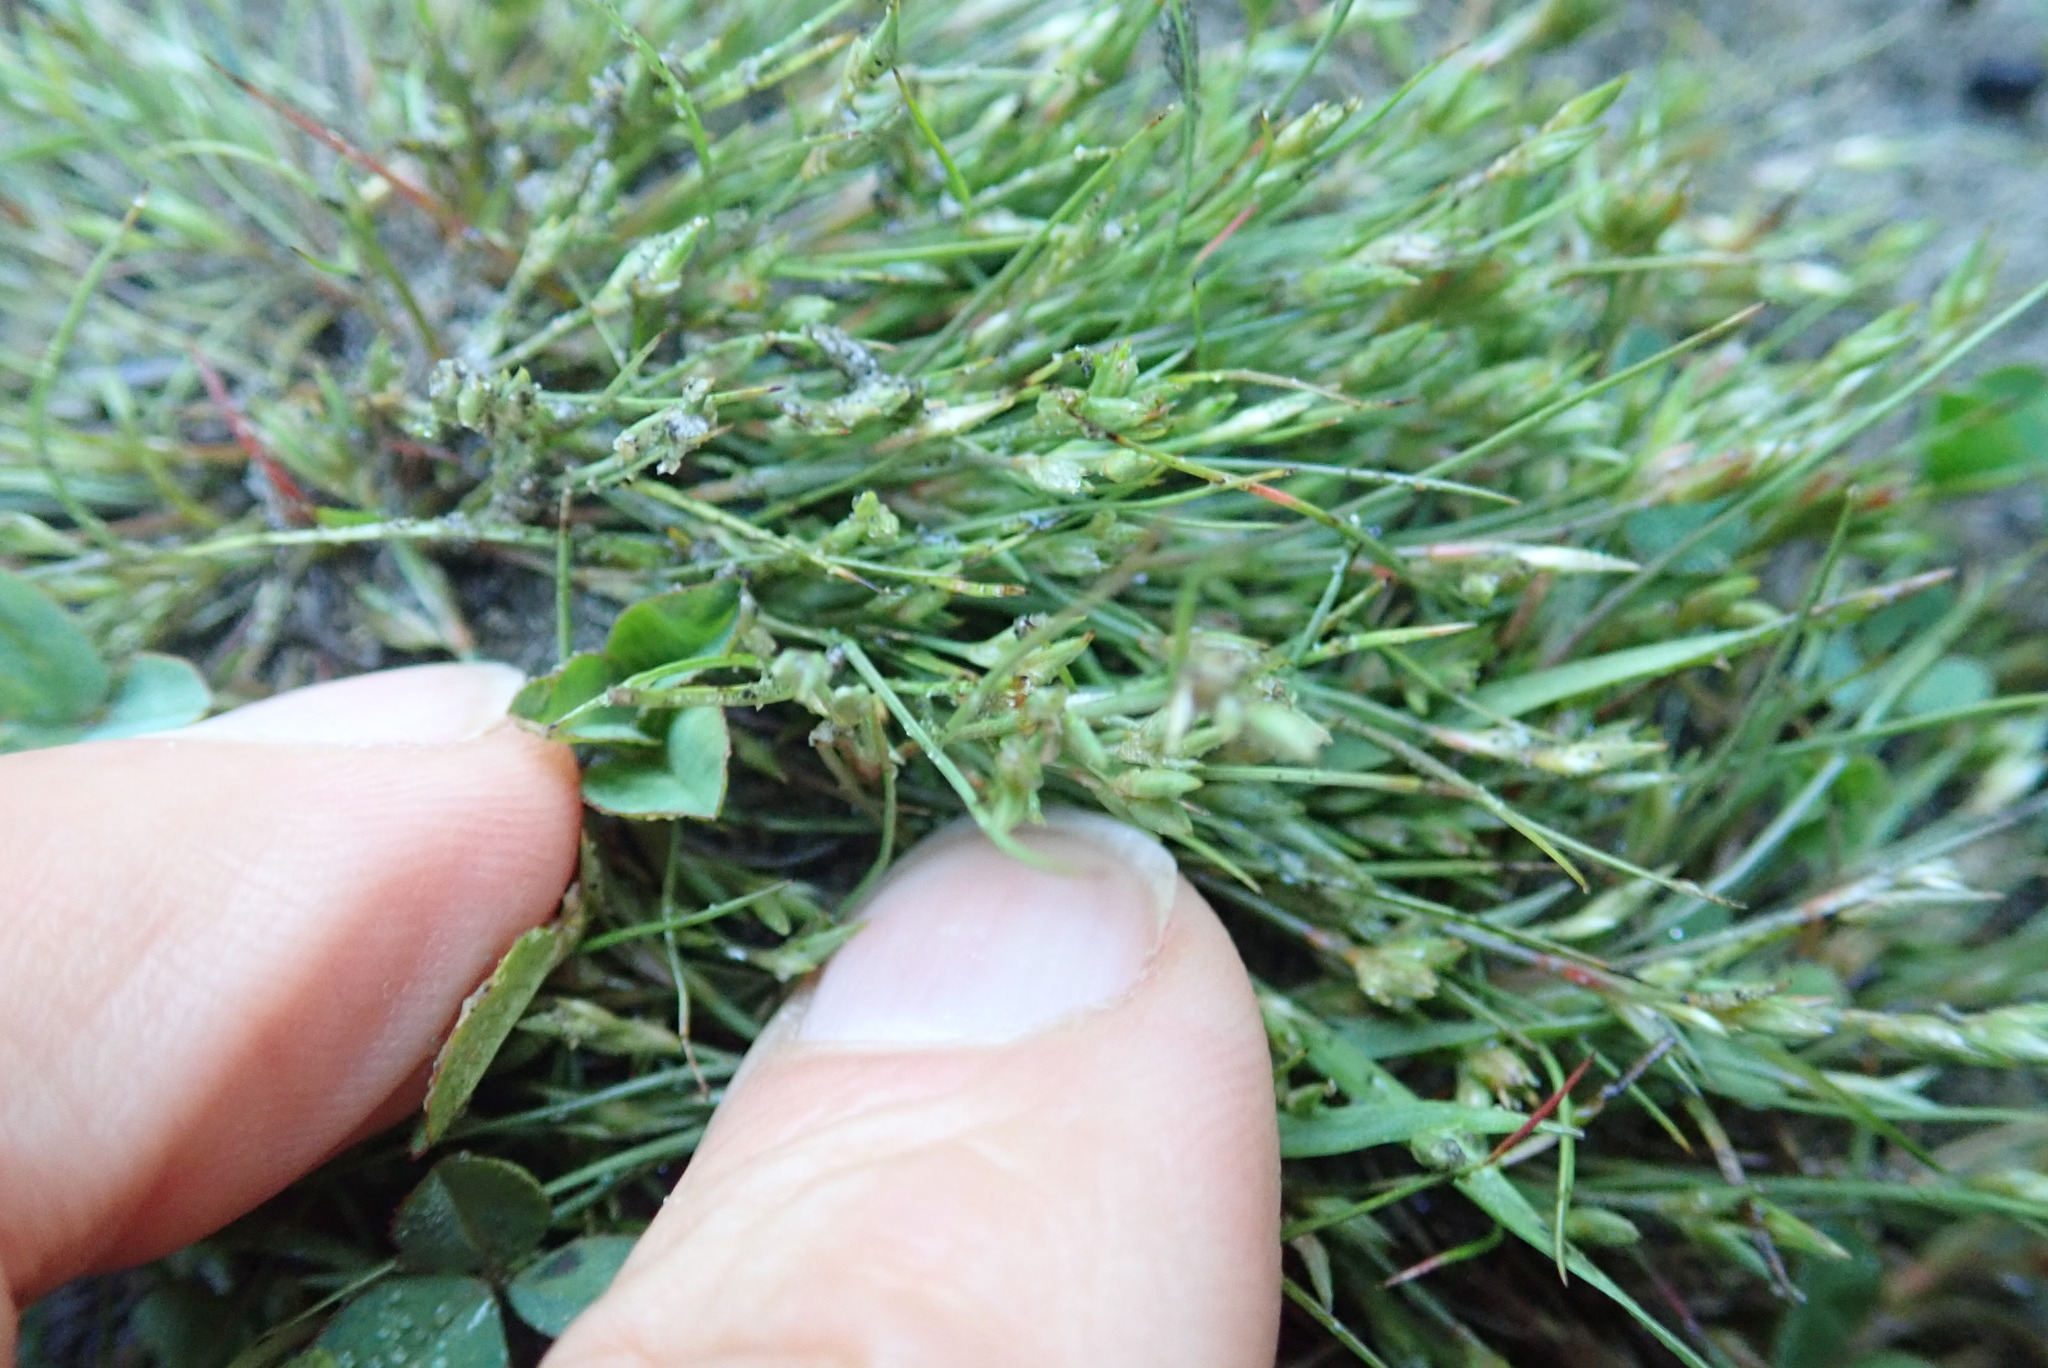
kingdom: Plantae
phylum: Tracheophyta
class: Liliopsida
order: Poales
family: Juncaceae
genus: Juncus
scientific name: Juncus bufonius
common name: Toad rush
